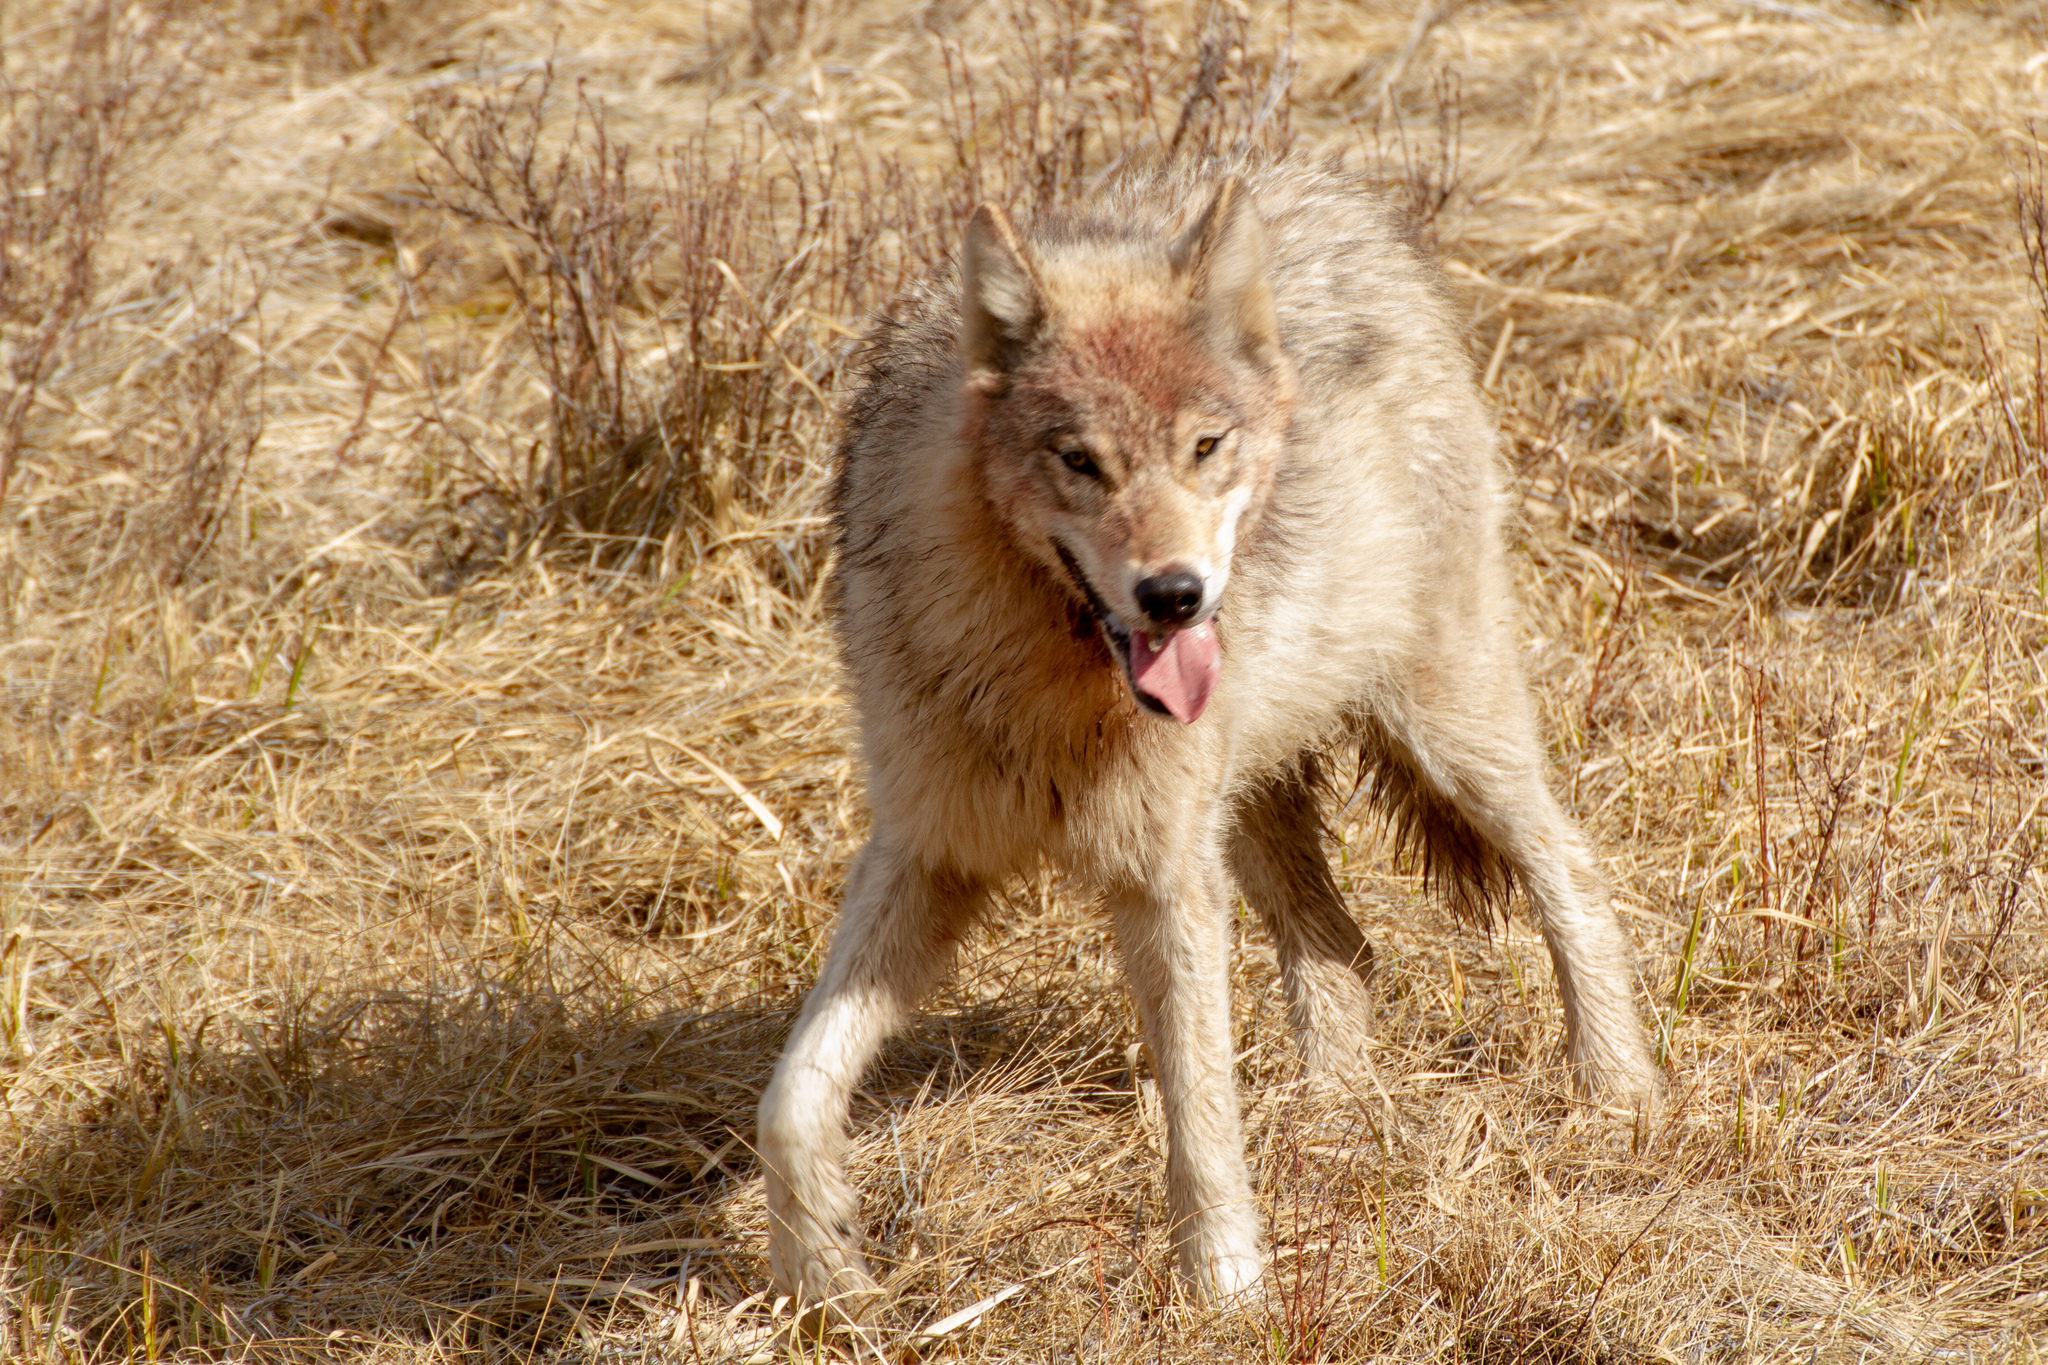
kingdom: Animalia
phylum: Chordata
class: Mammalia
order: Carnivora
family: Canidae
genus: Canis
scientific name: Canis lupus
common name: Gray wolf
